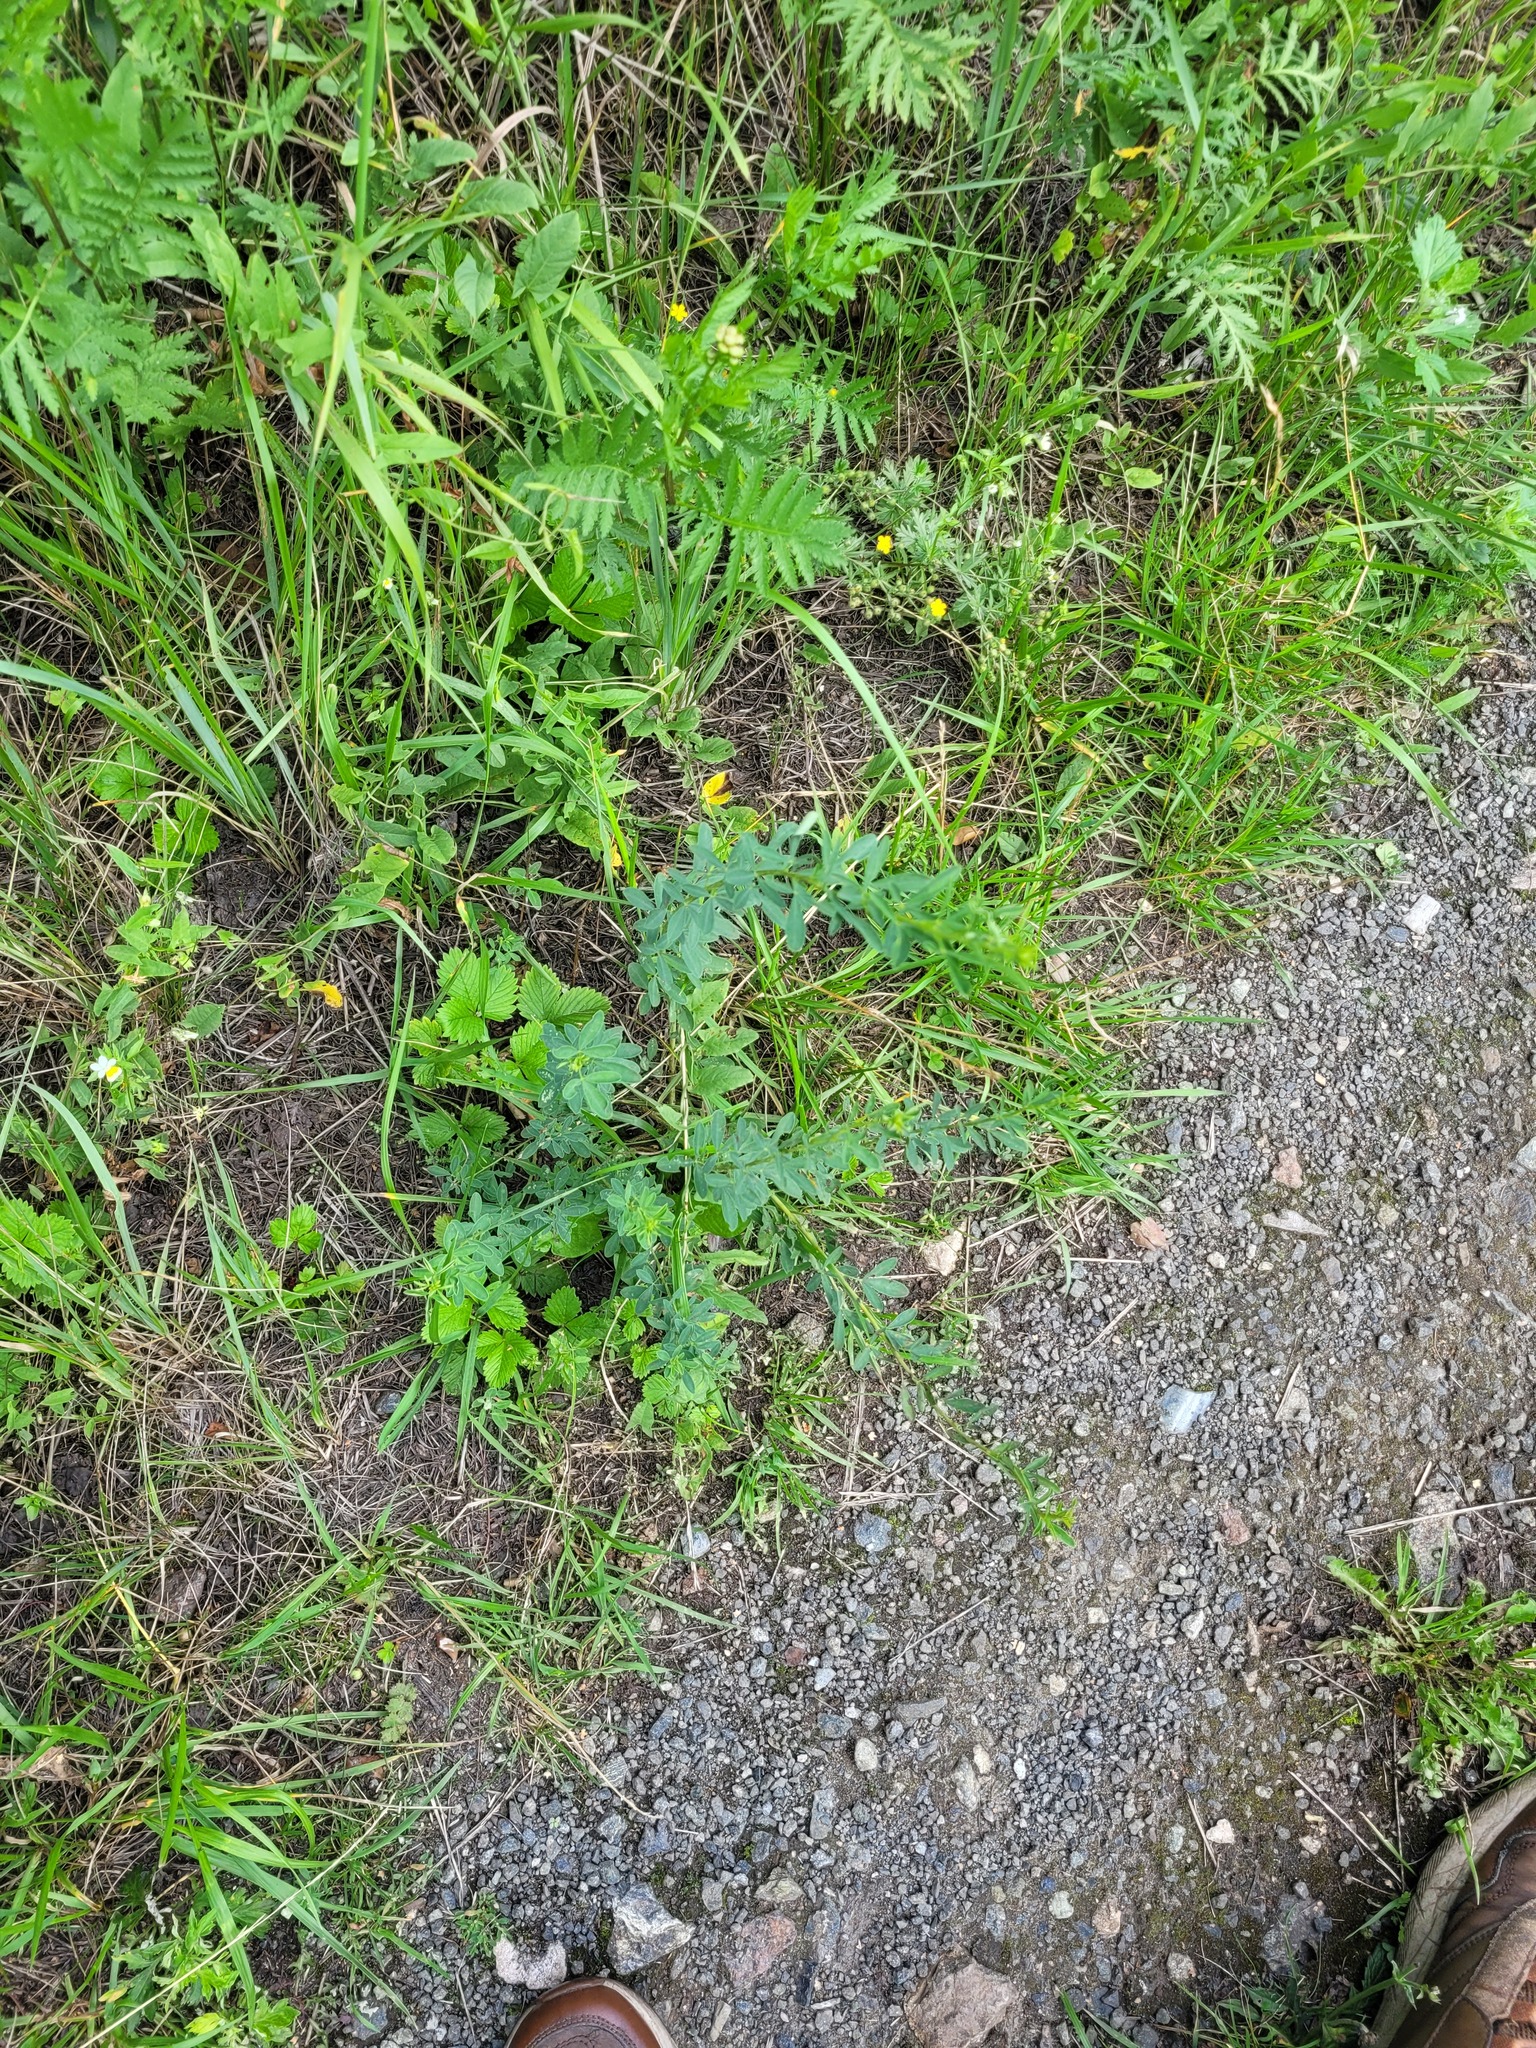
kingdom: Plantae
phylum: Tracheophyta
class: Magnoliopsida
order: Fabales
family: Fabaceae
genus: Chamaecytisus
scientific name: Chamaecytisus ruthenicus
